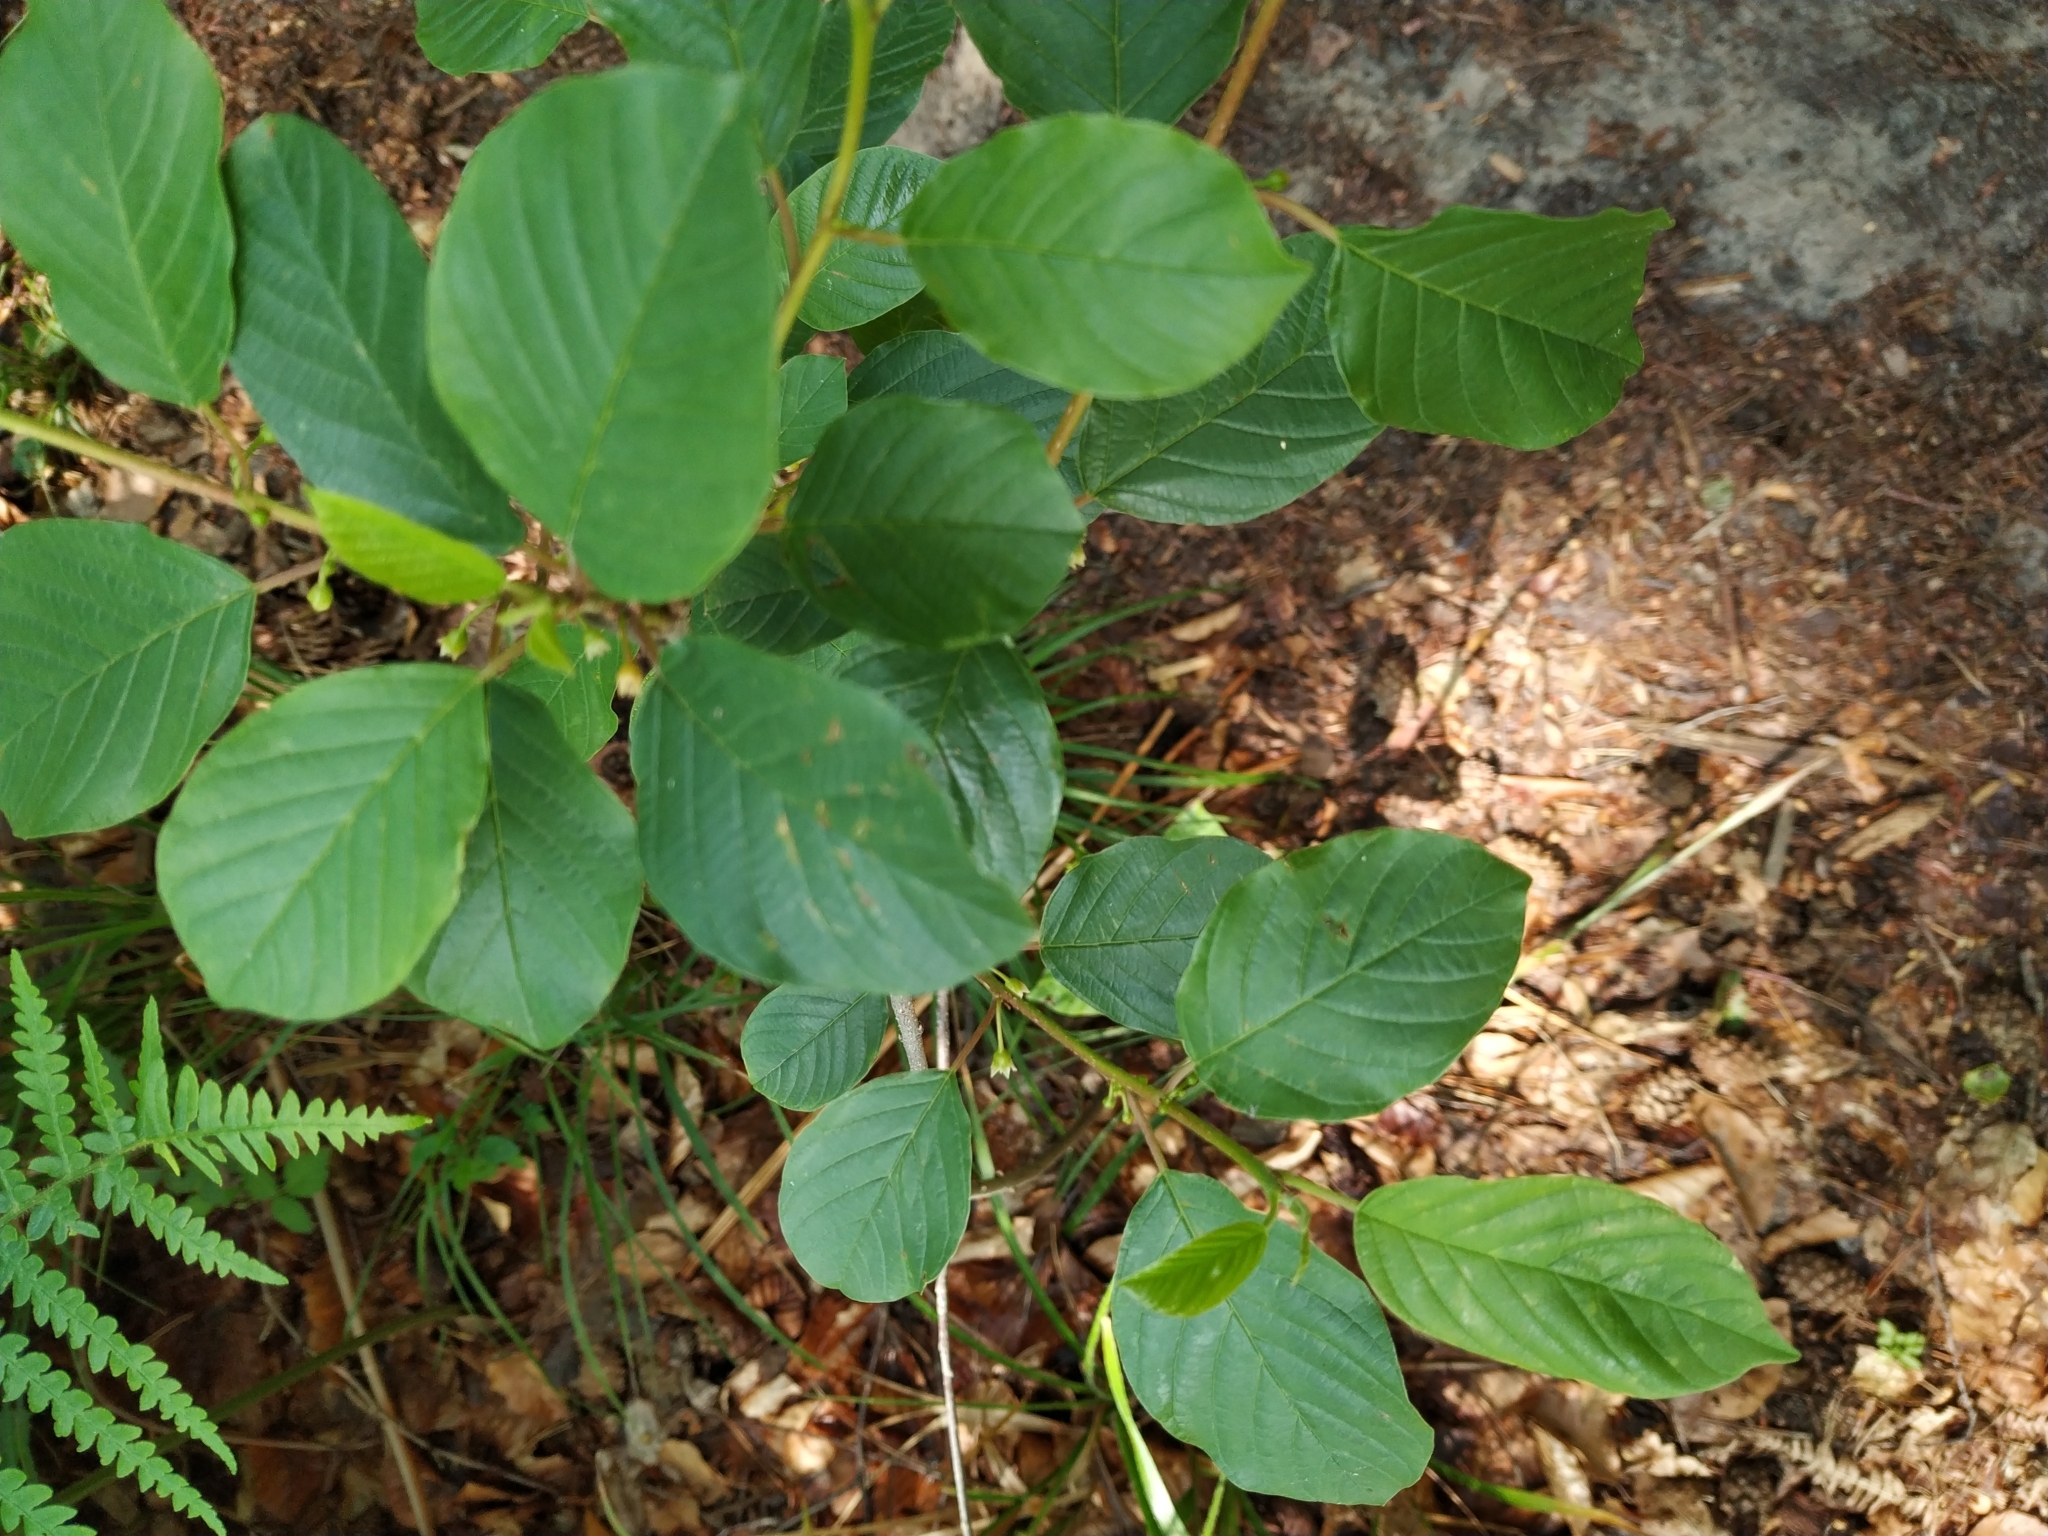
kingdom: Plantae
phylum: Tracheophyta
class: Magnoliopsida
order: Rosales
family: Rhamnaceae
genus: Frangula
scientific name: Frangula alnus
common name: Alder buckthorn
